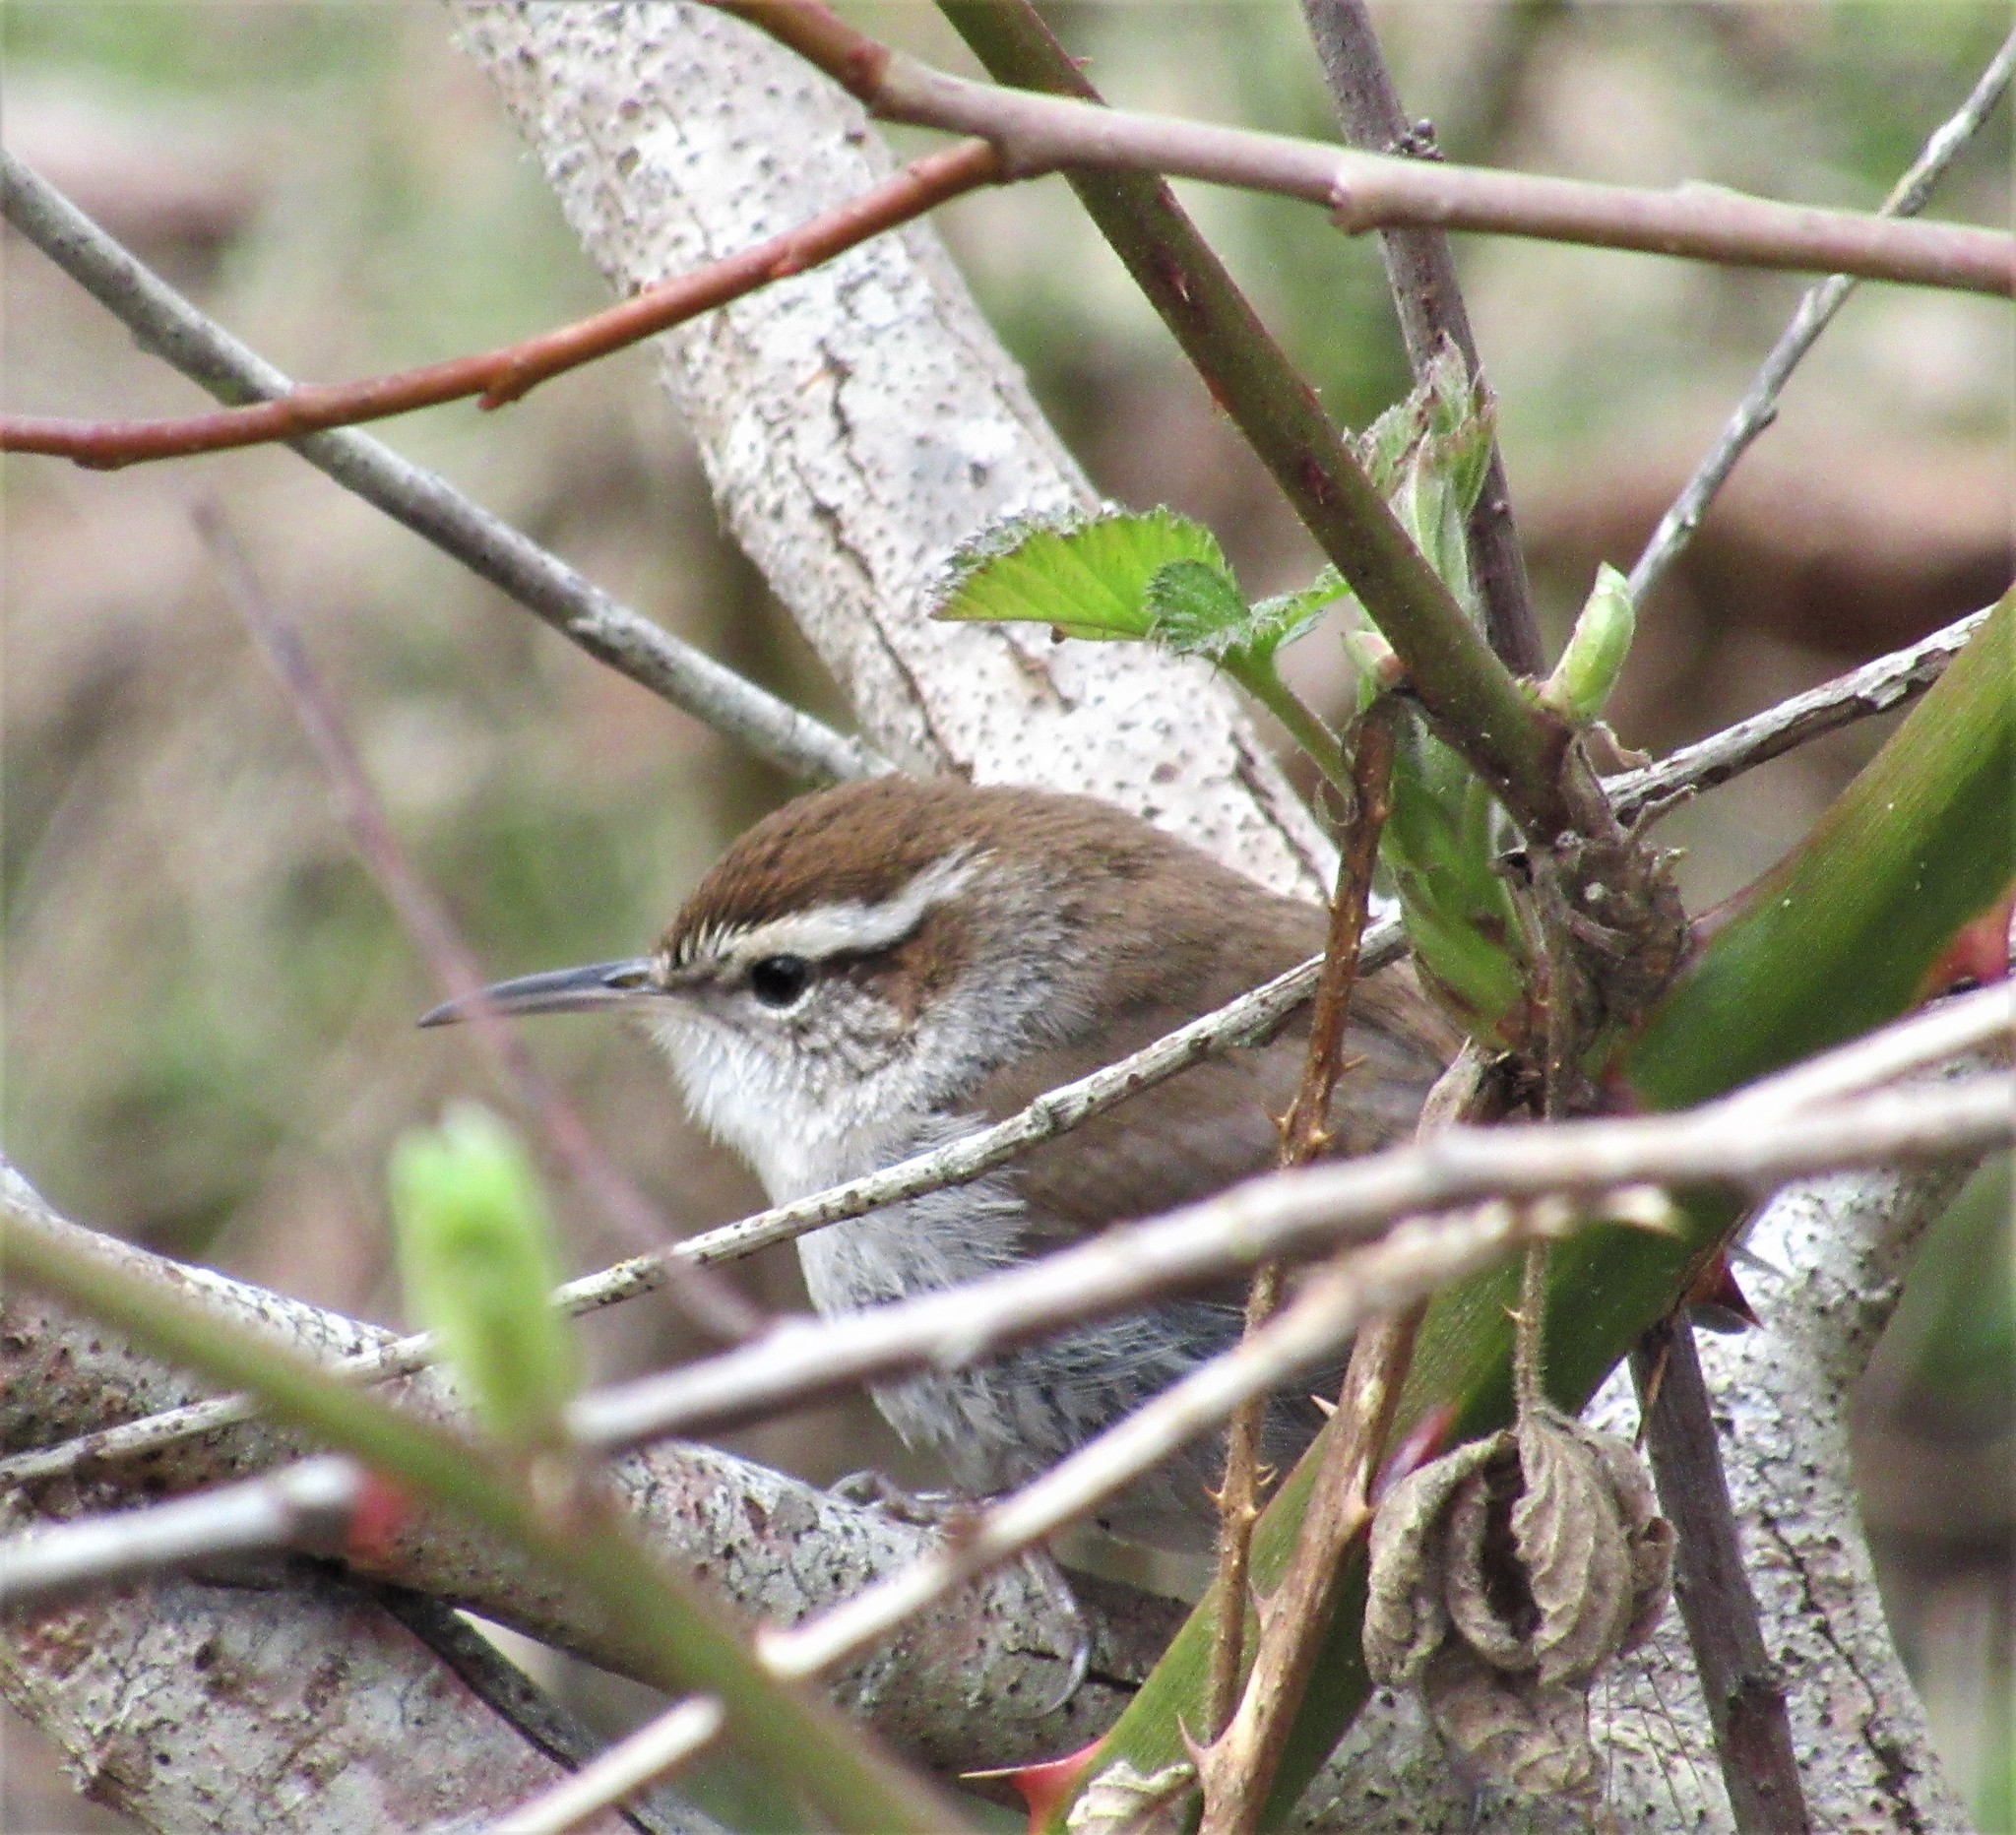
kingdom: Animalia
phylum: Chordata
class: Aves
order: Passeriformes
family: Troglodytidae
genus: Thryomanes
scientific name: Thryomanes bewickii
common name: Bewick's wren
